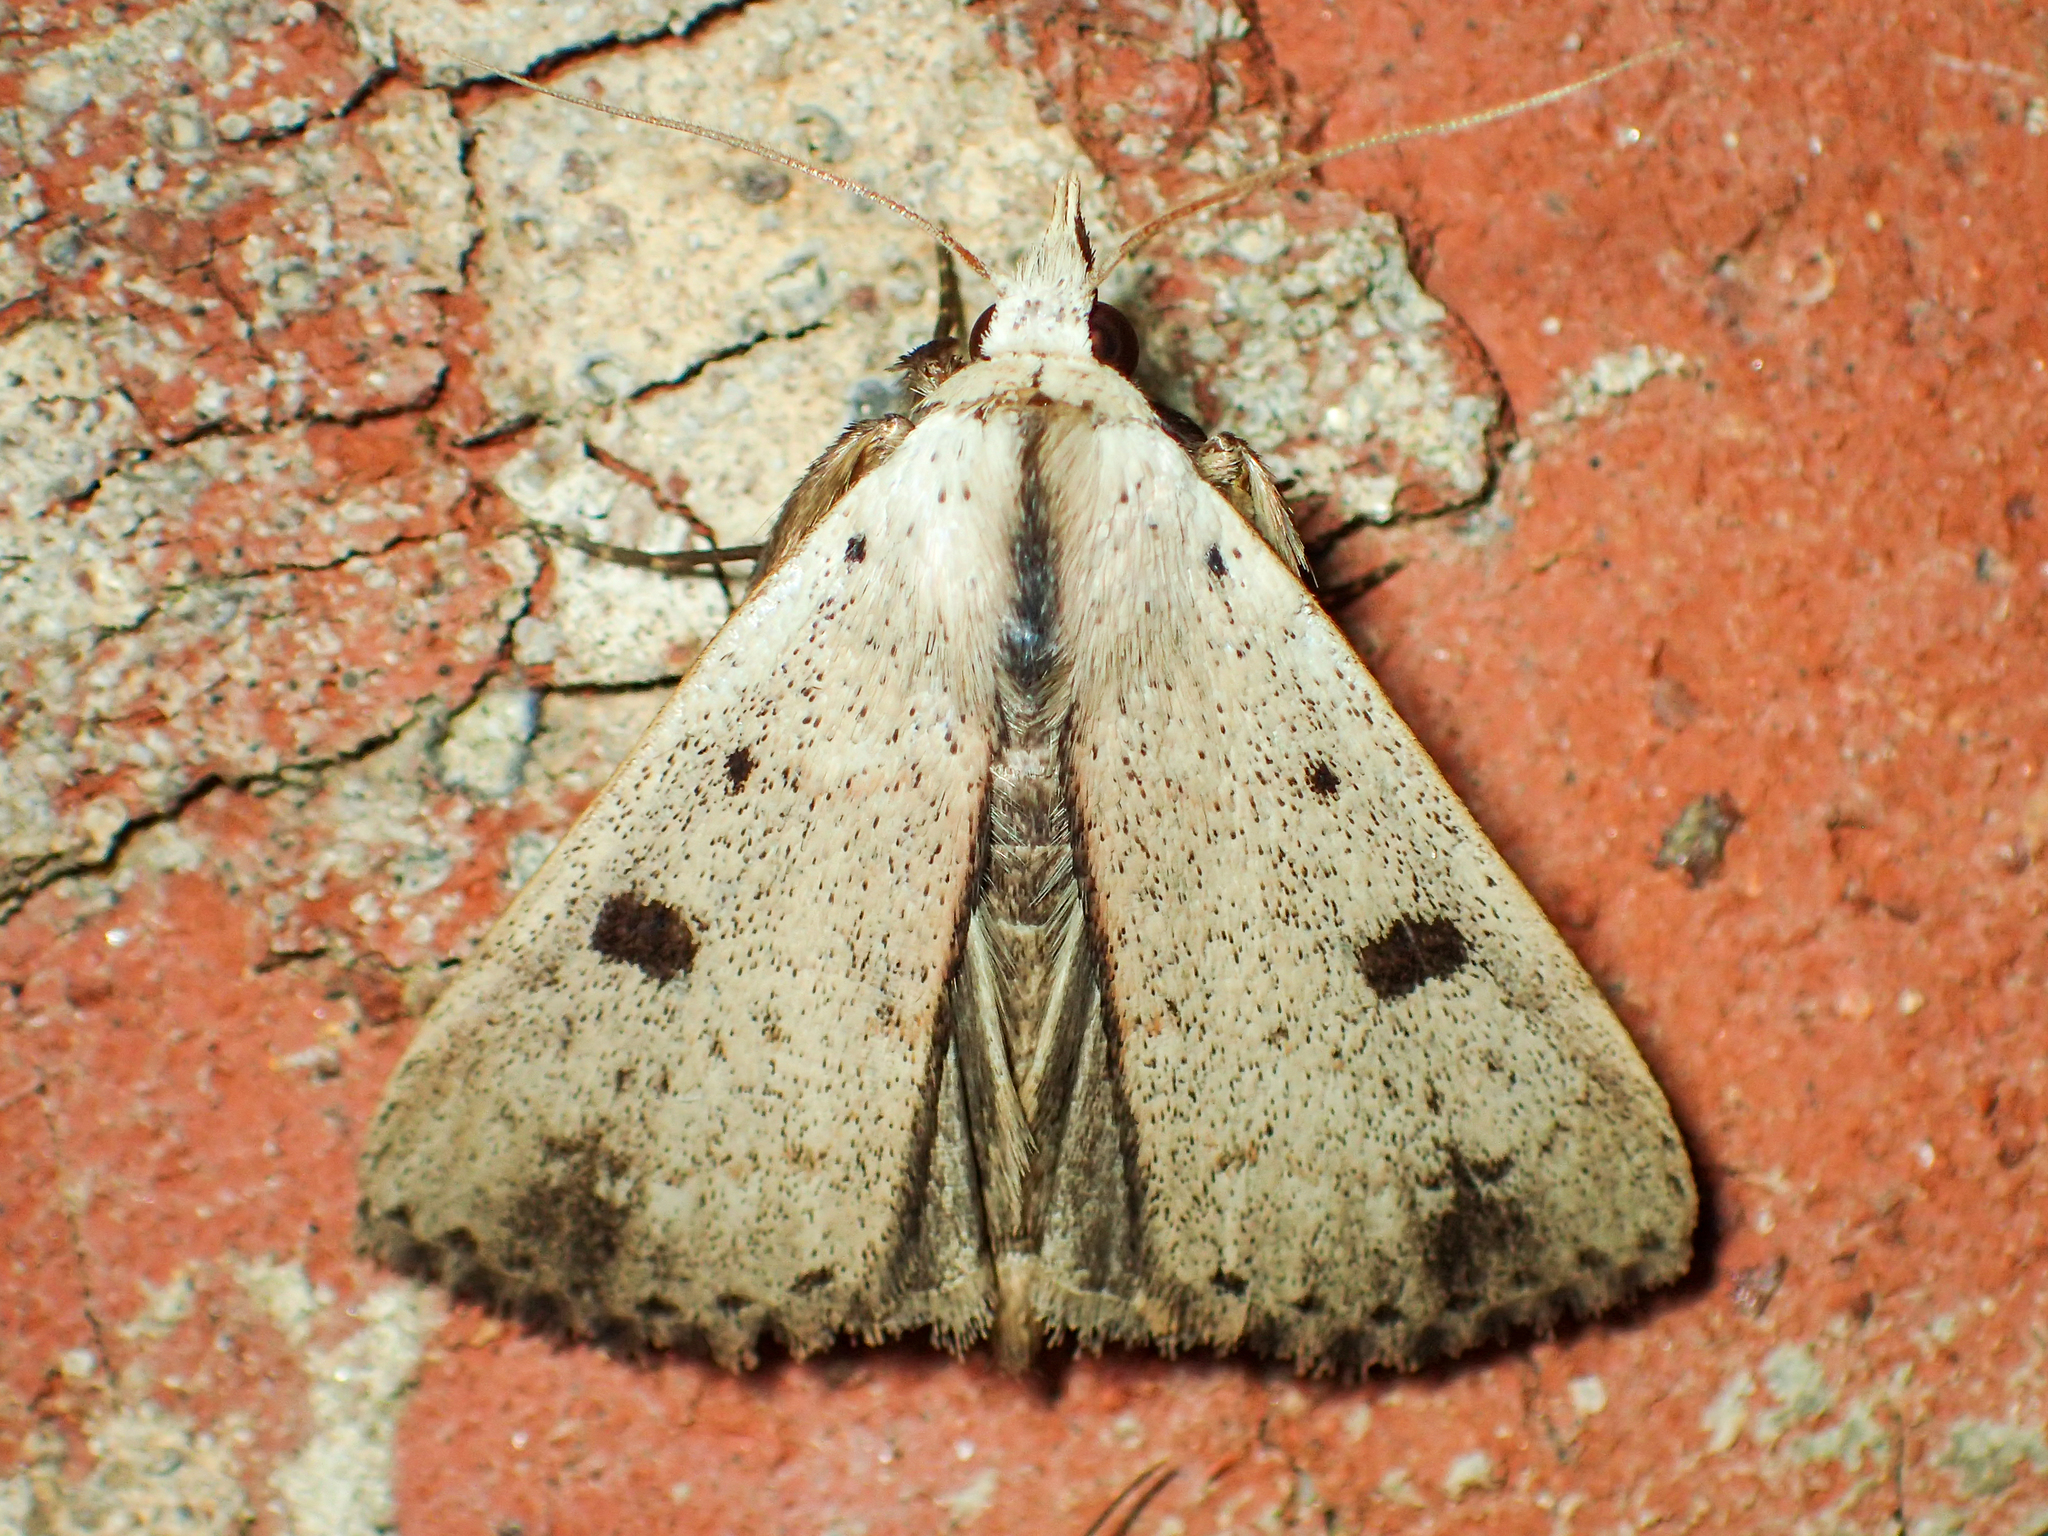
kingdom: Animalia
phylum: Arthropoda
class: Insecta
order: Lepidoptera
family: Erebidae
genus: Scolecocampa
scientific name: Scolecocampa liburna
